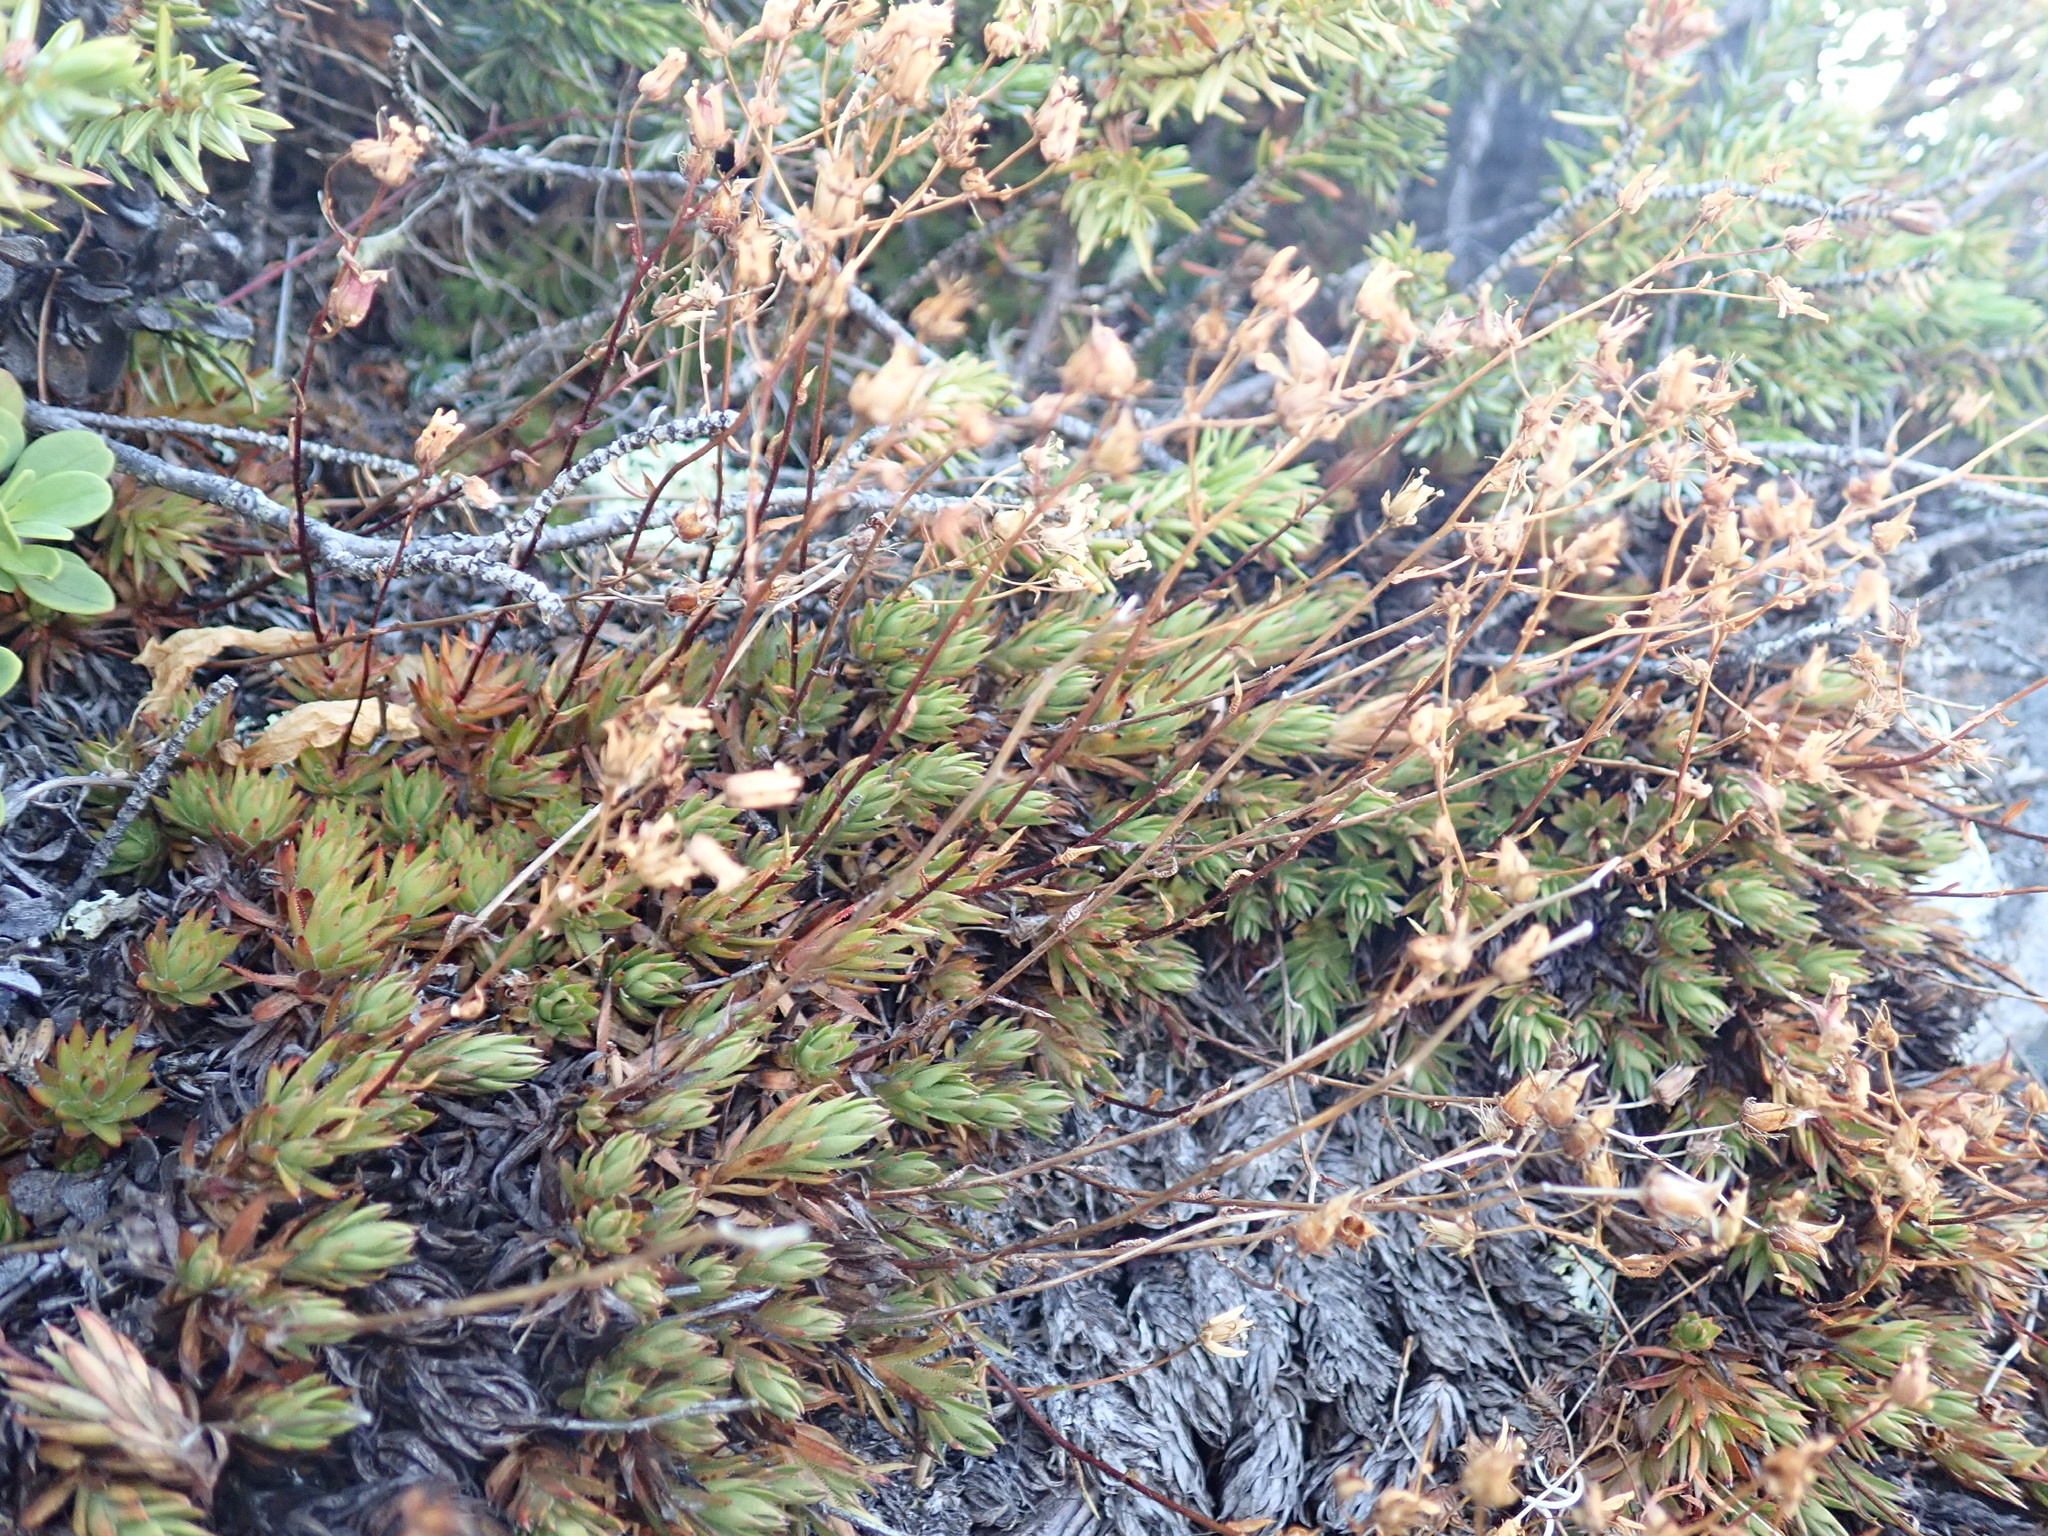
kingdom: Plantae
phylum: Tracheophyta
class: Magnoliopsida
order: Saxifragales
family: Saxifragaceae
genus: Saxifraga
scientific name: Saxifraga bronchialis
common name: Matted saxifrage
